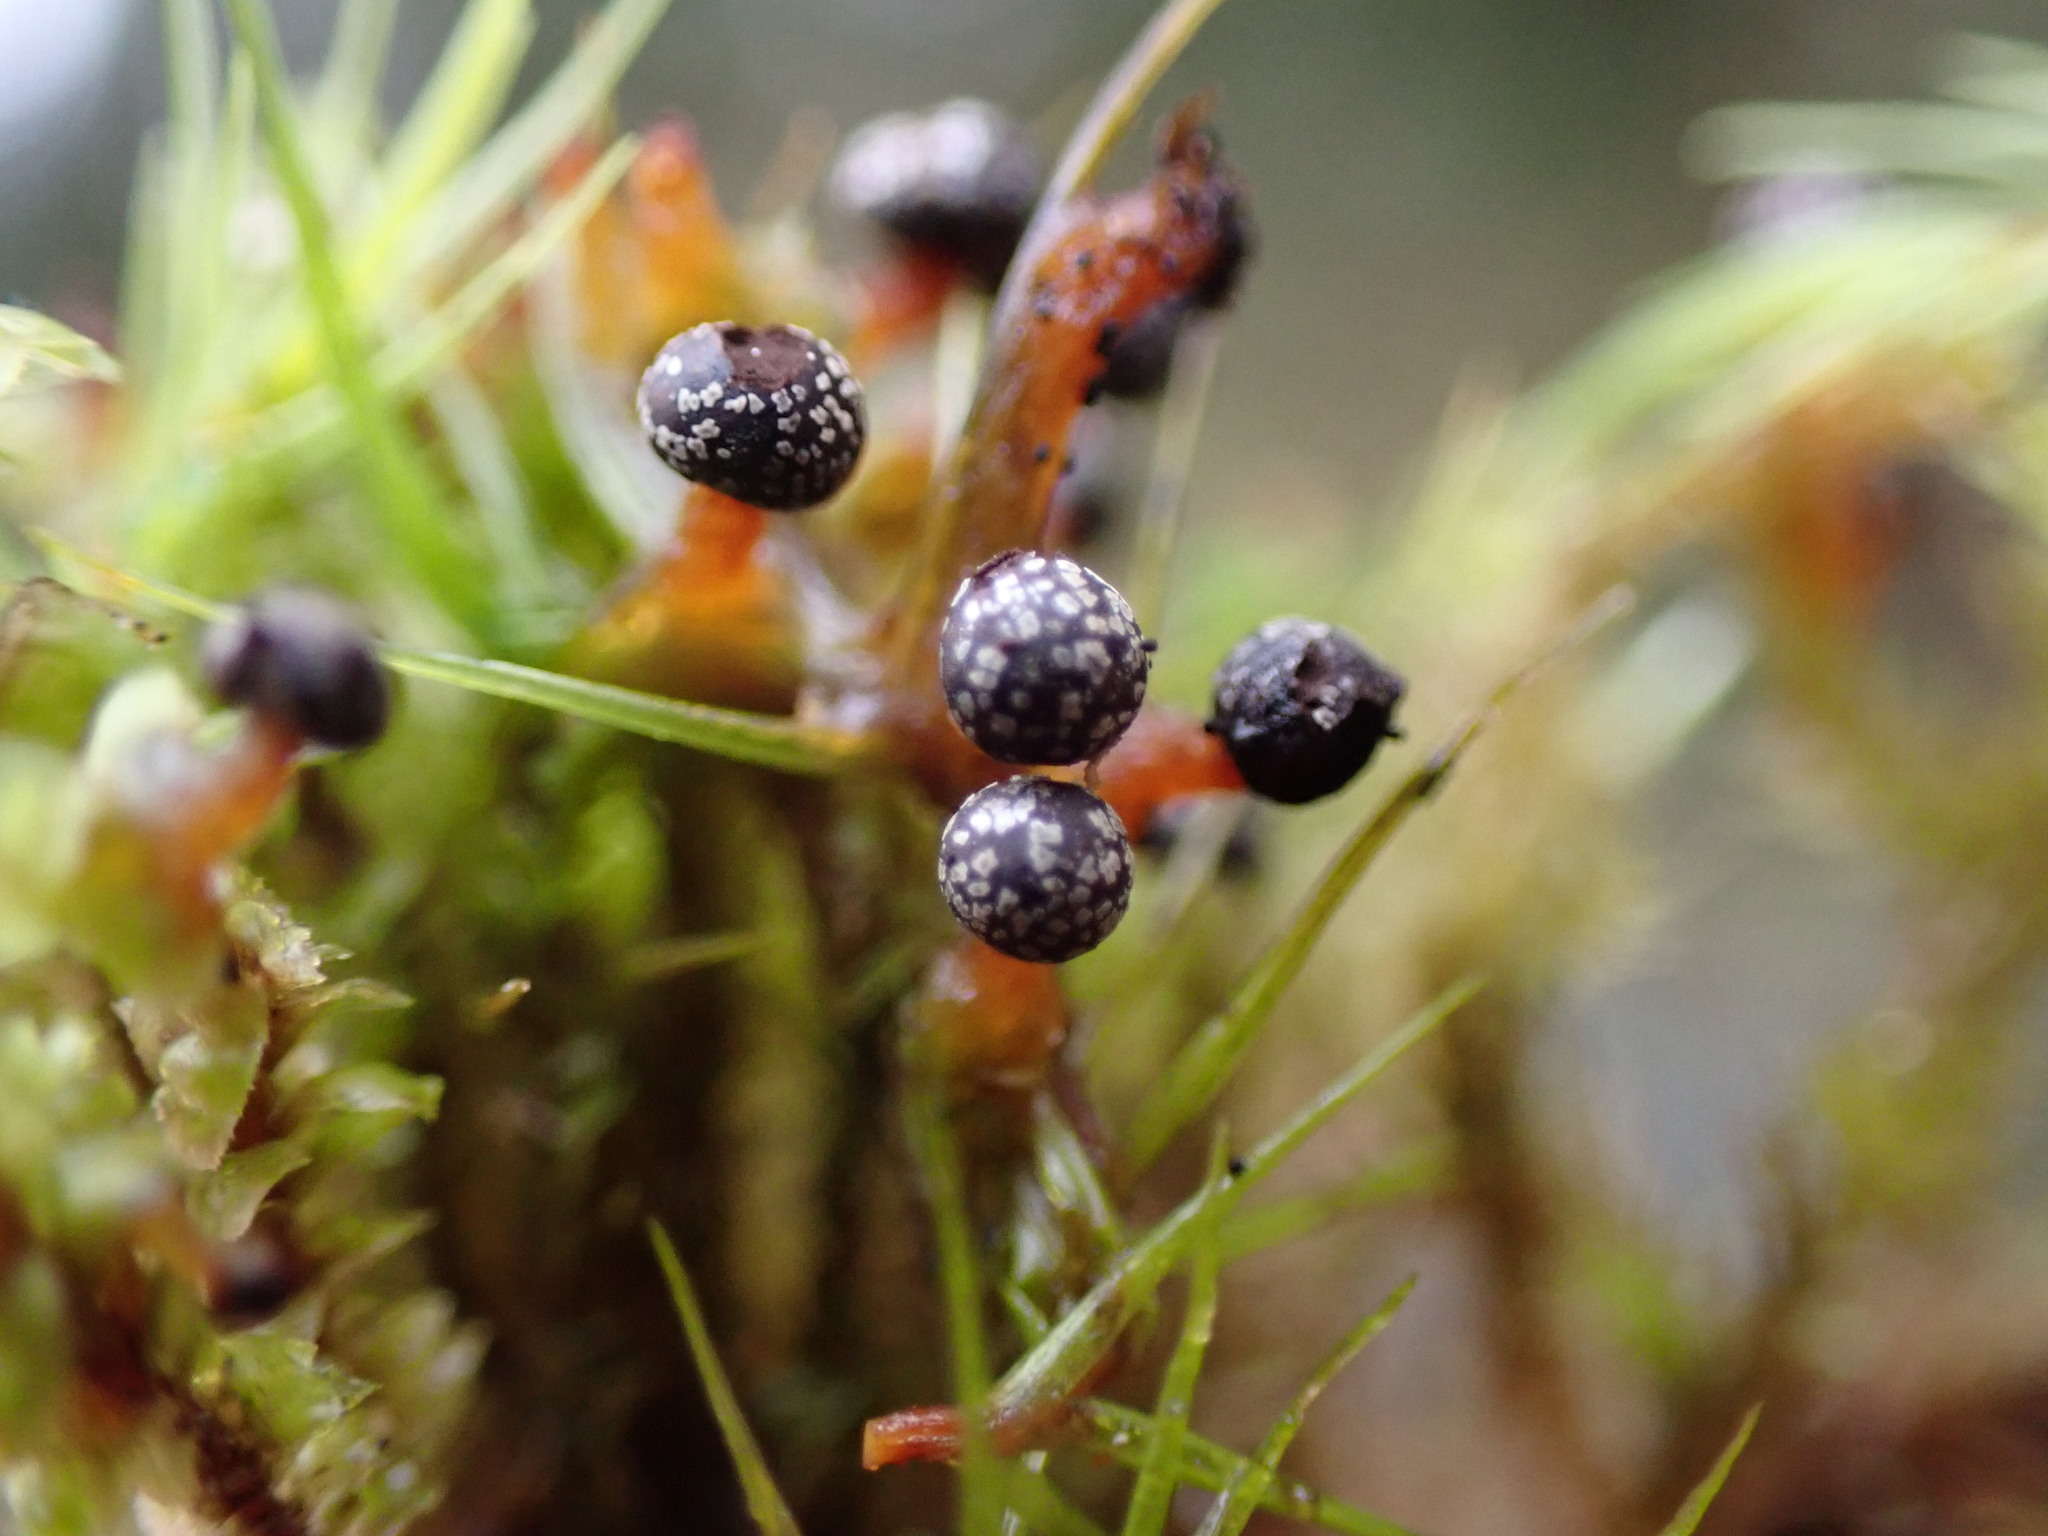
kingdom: Protozoa
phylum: Mycetozoa
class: Myxomycetes
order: Physarales
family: Didymiaceae
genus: Lepidoderma
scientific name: Lepidoderma tigrinum
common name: Lepidoderma crassipes
